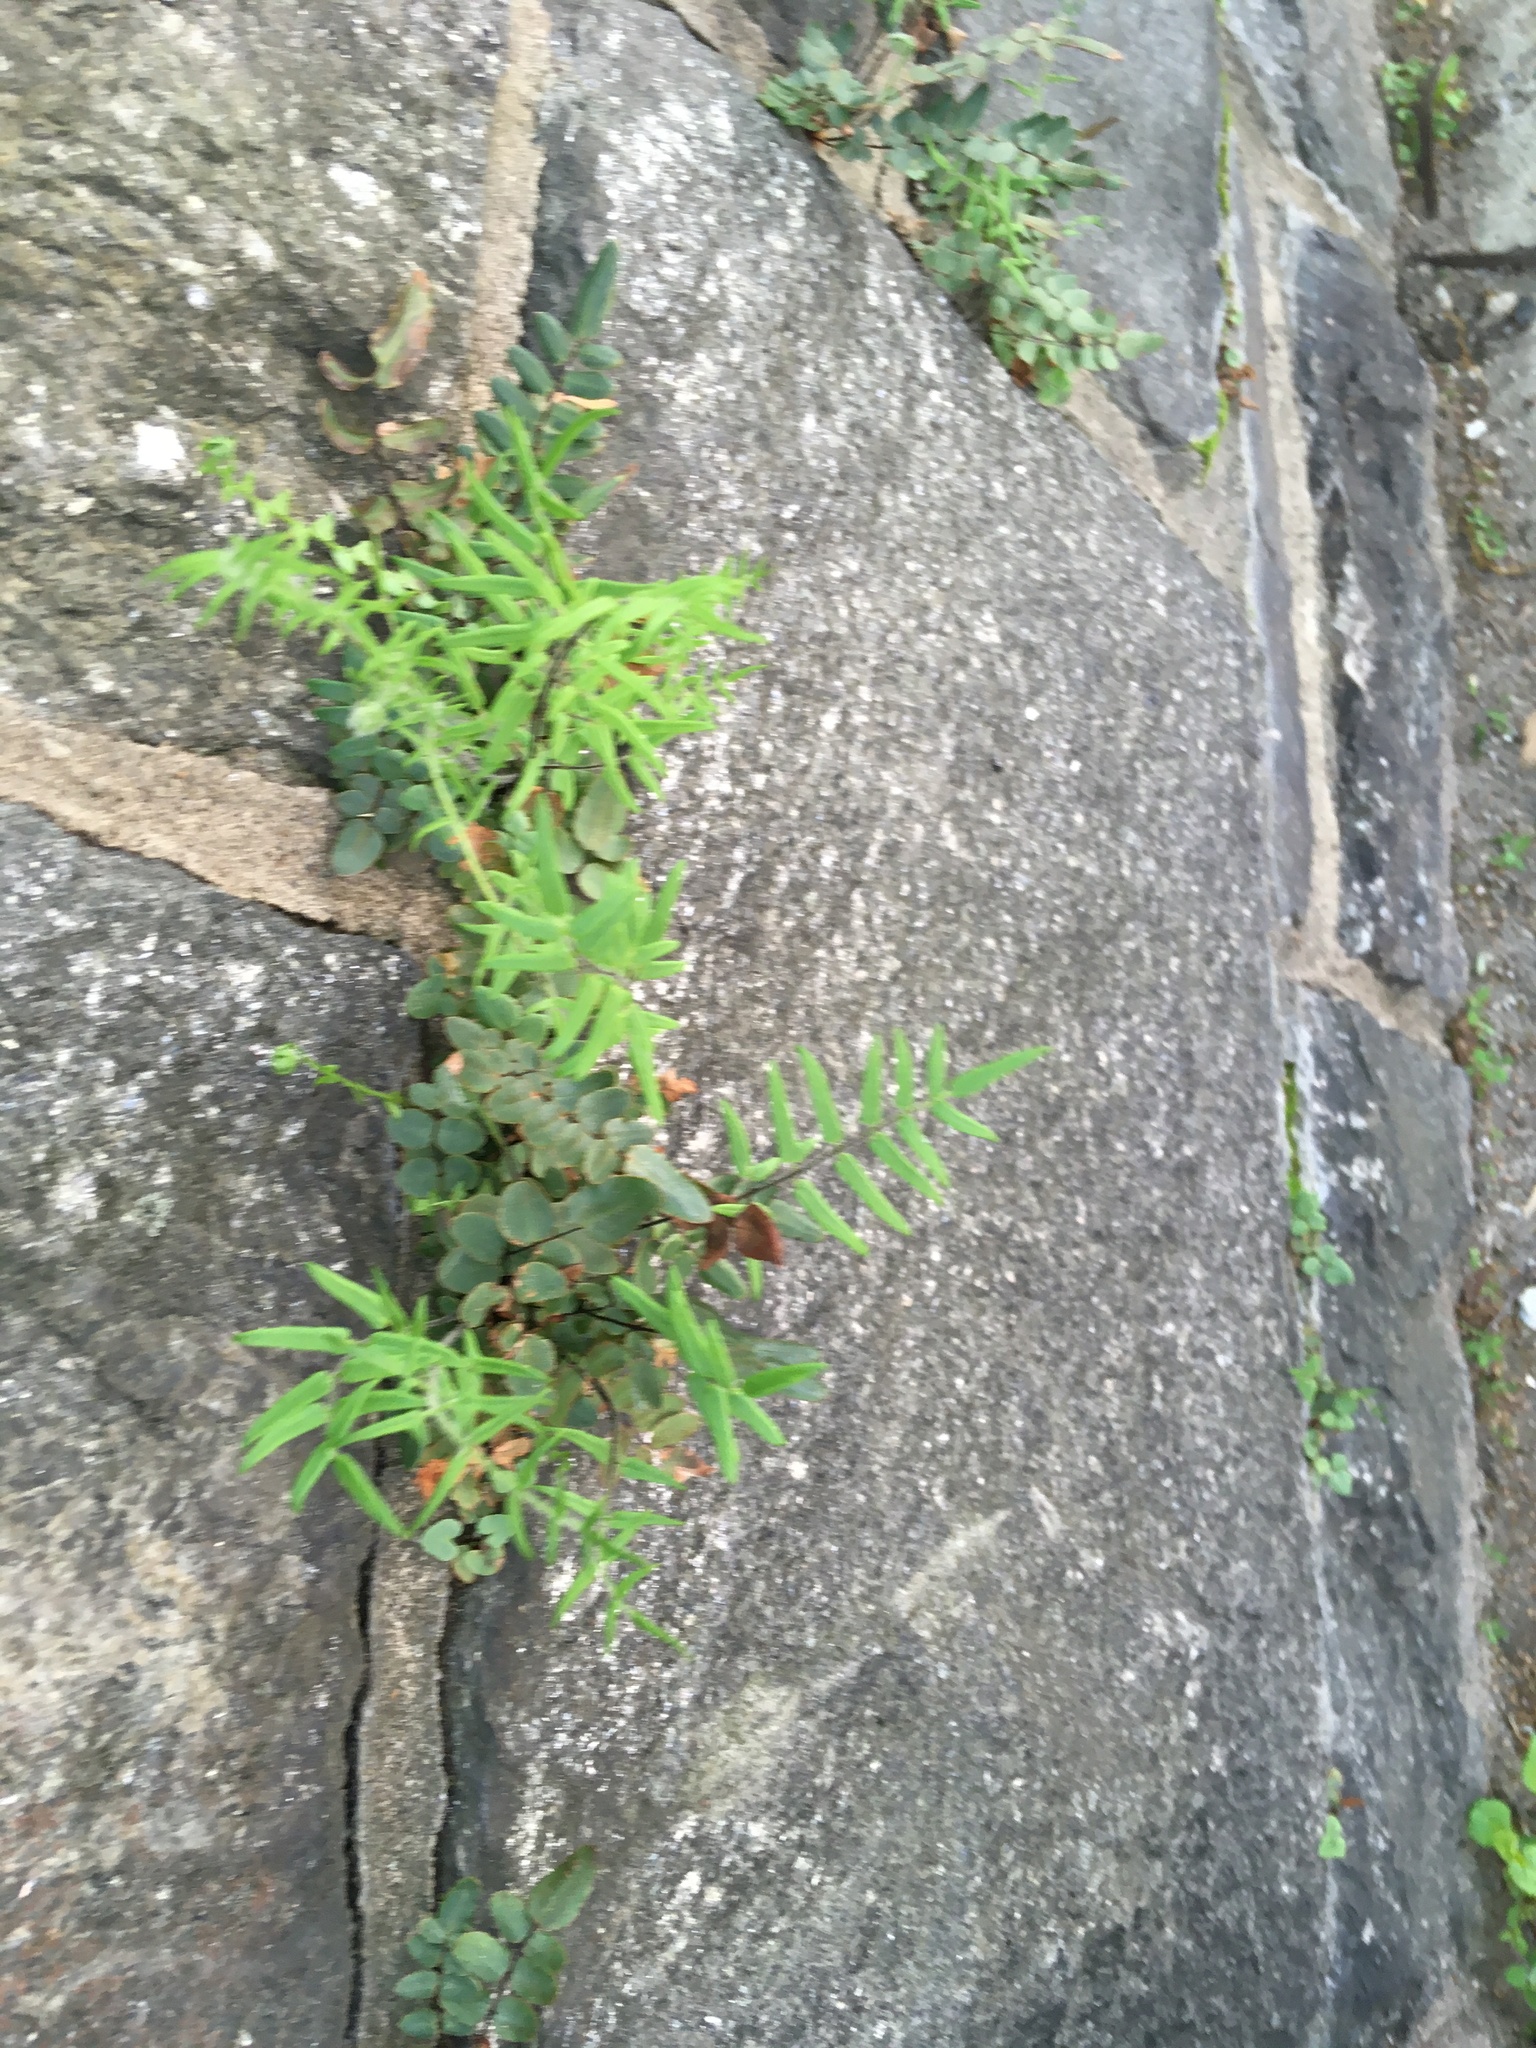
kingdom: Plantae
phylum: Tracheophyta
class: Polypodiopsida
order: Polypodiales
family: Pteridaceae
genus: Pellaea
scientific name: Pellaea atropurpurea
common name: Hairy cliffbrake
